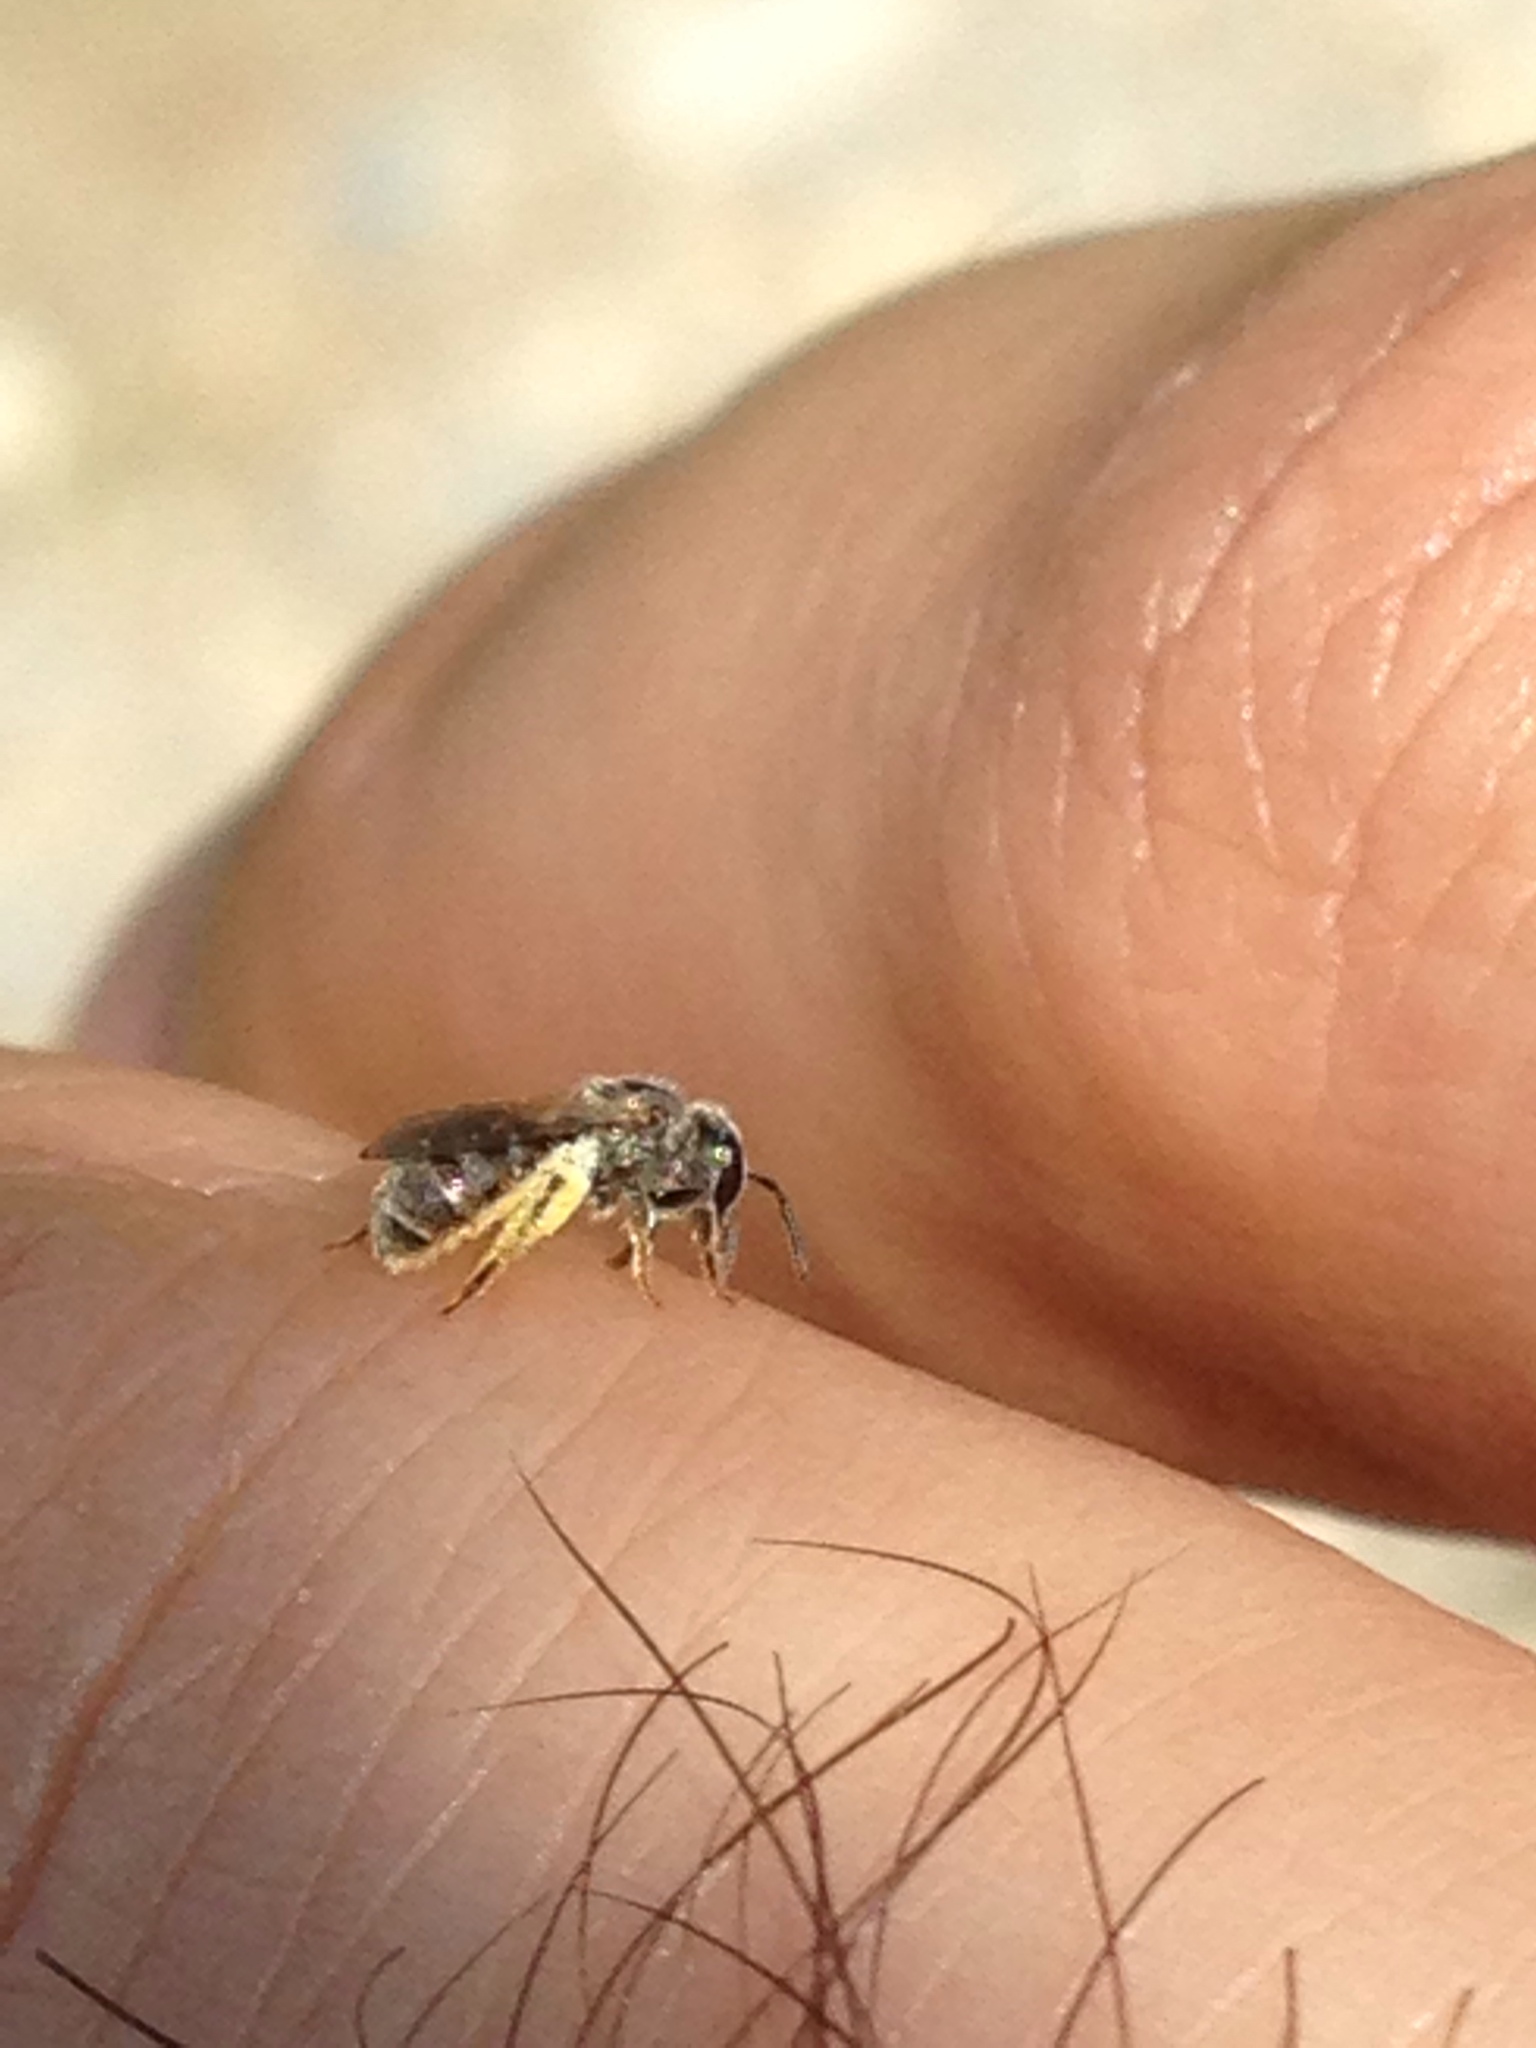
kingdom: Animalia
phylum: Arthropoda
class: Insecta
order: Hymenoptera
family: Halictidae
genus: Dialictus
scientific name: Dialictus
